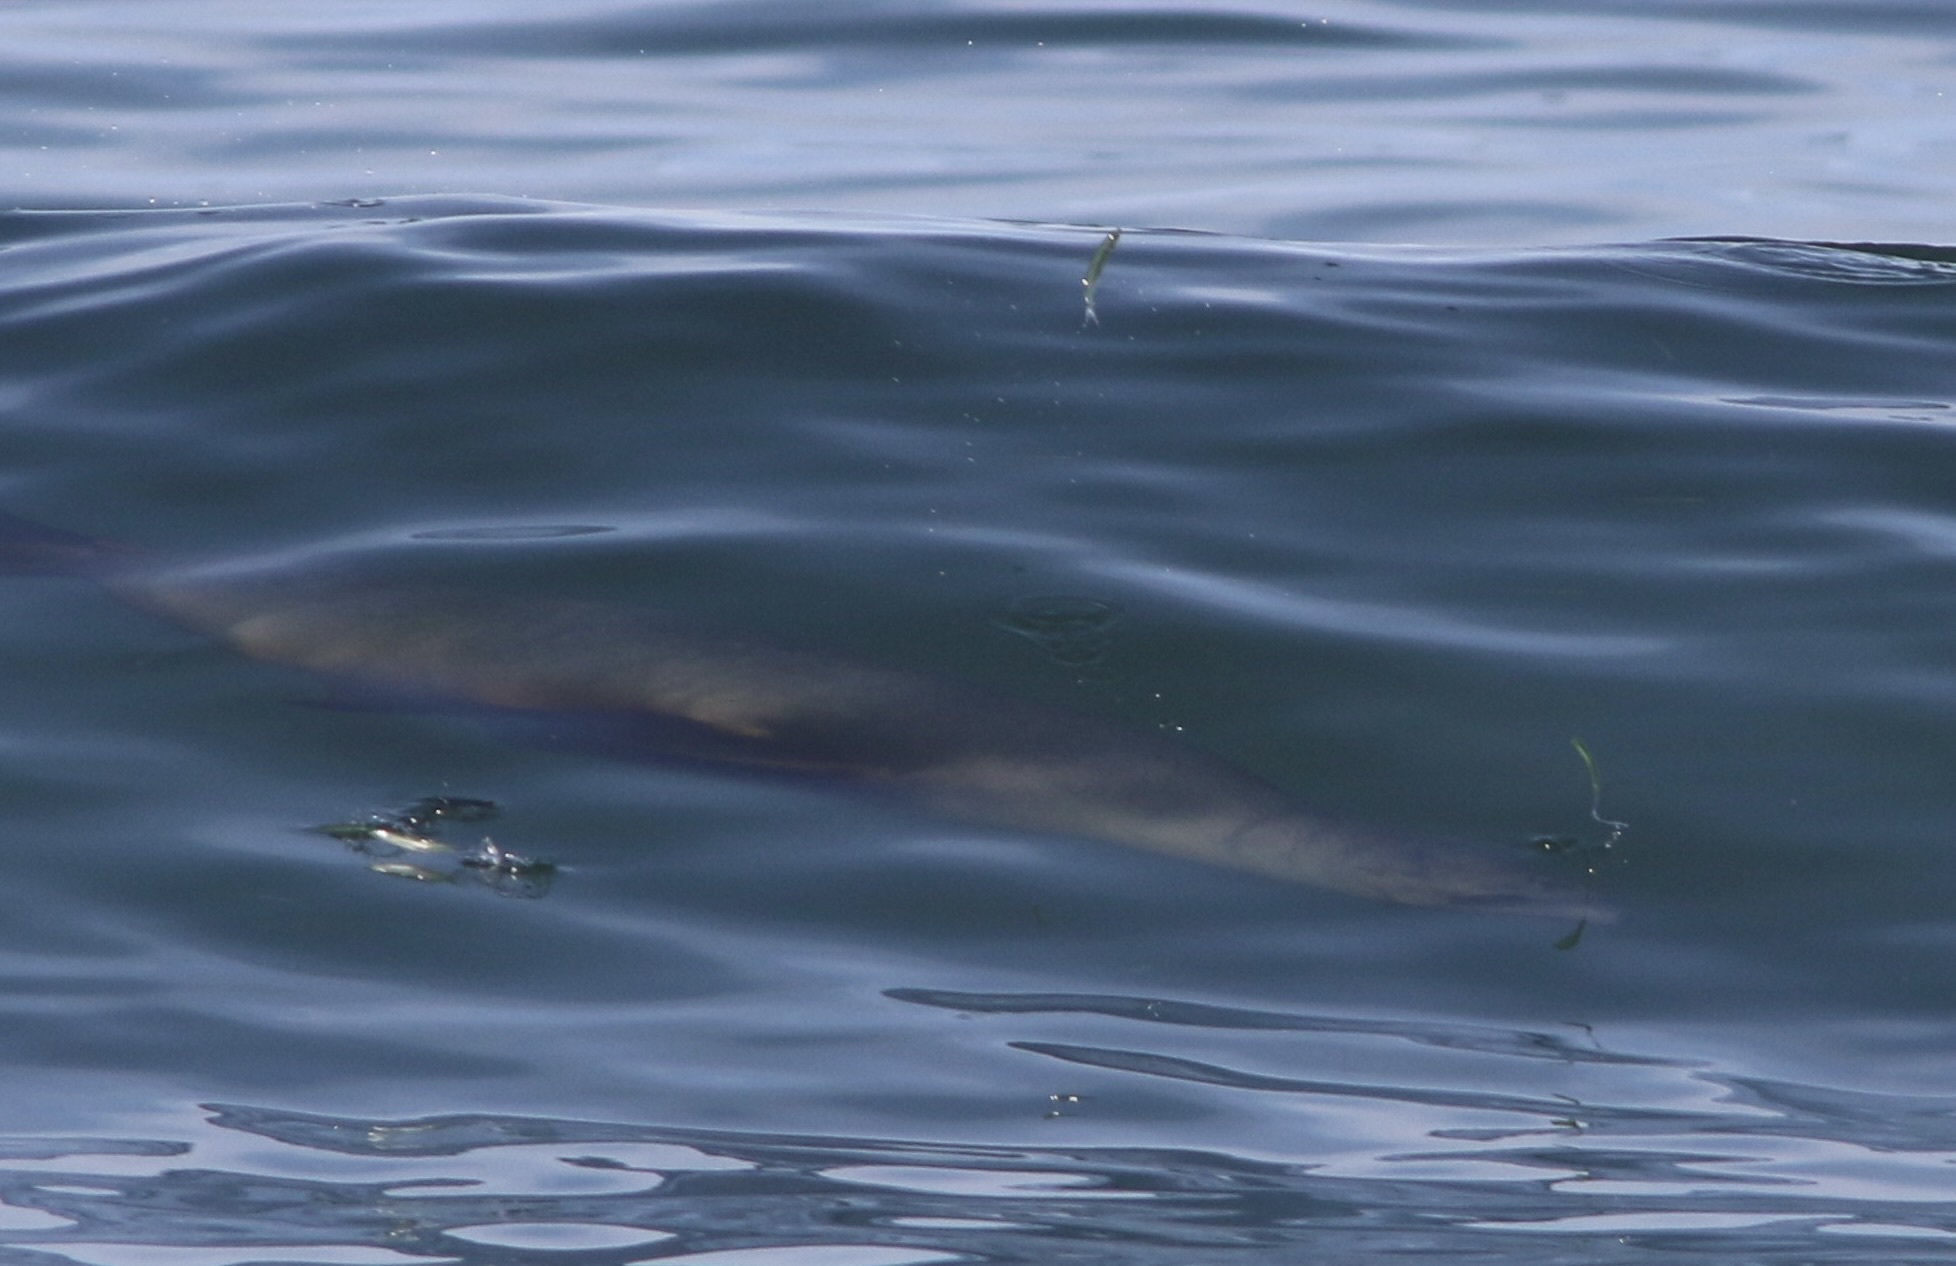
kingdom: Animalia
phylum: Chordata
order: Clupeiformes
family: Engraulidae
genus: Engraulis
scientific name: Engraulis mordax
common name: Northern anchovy
